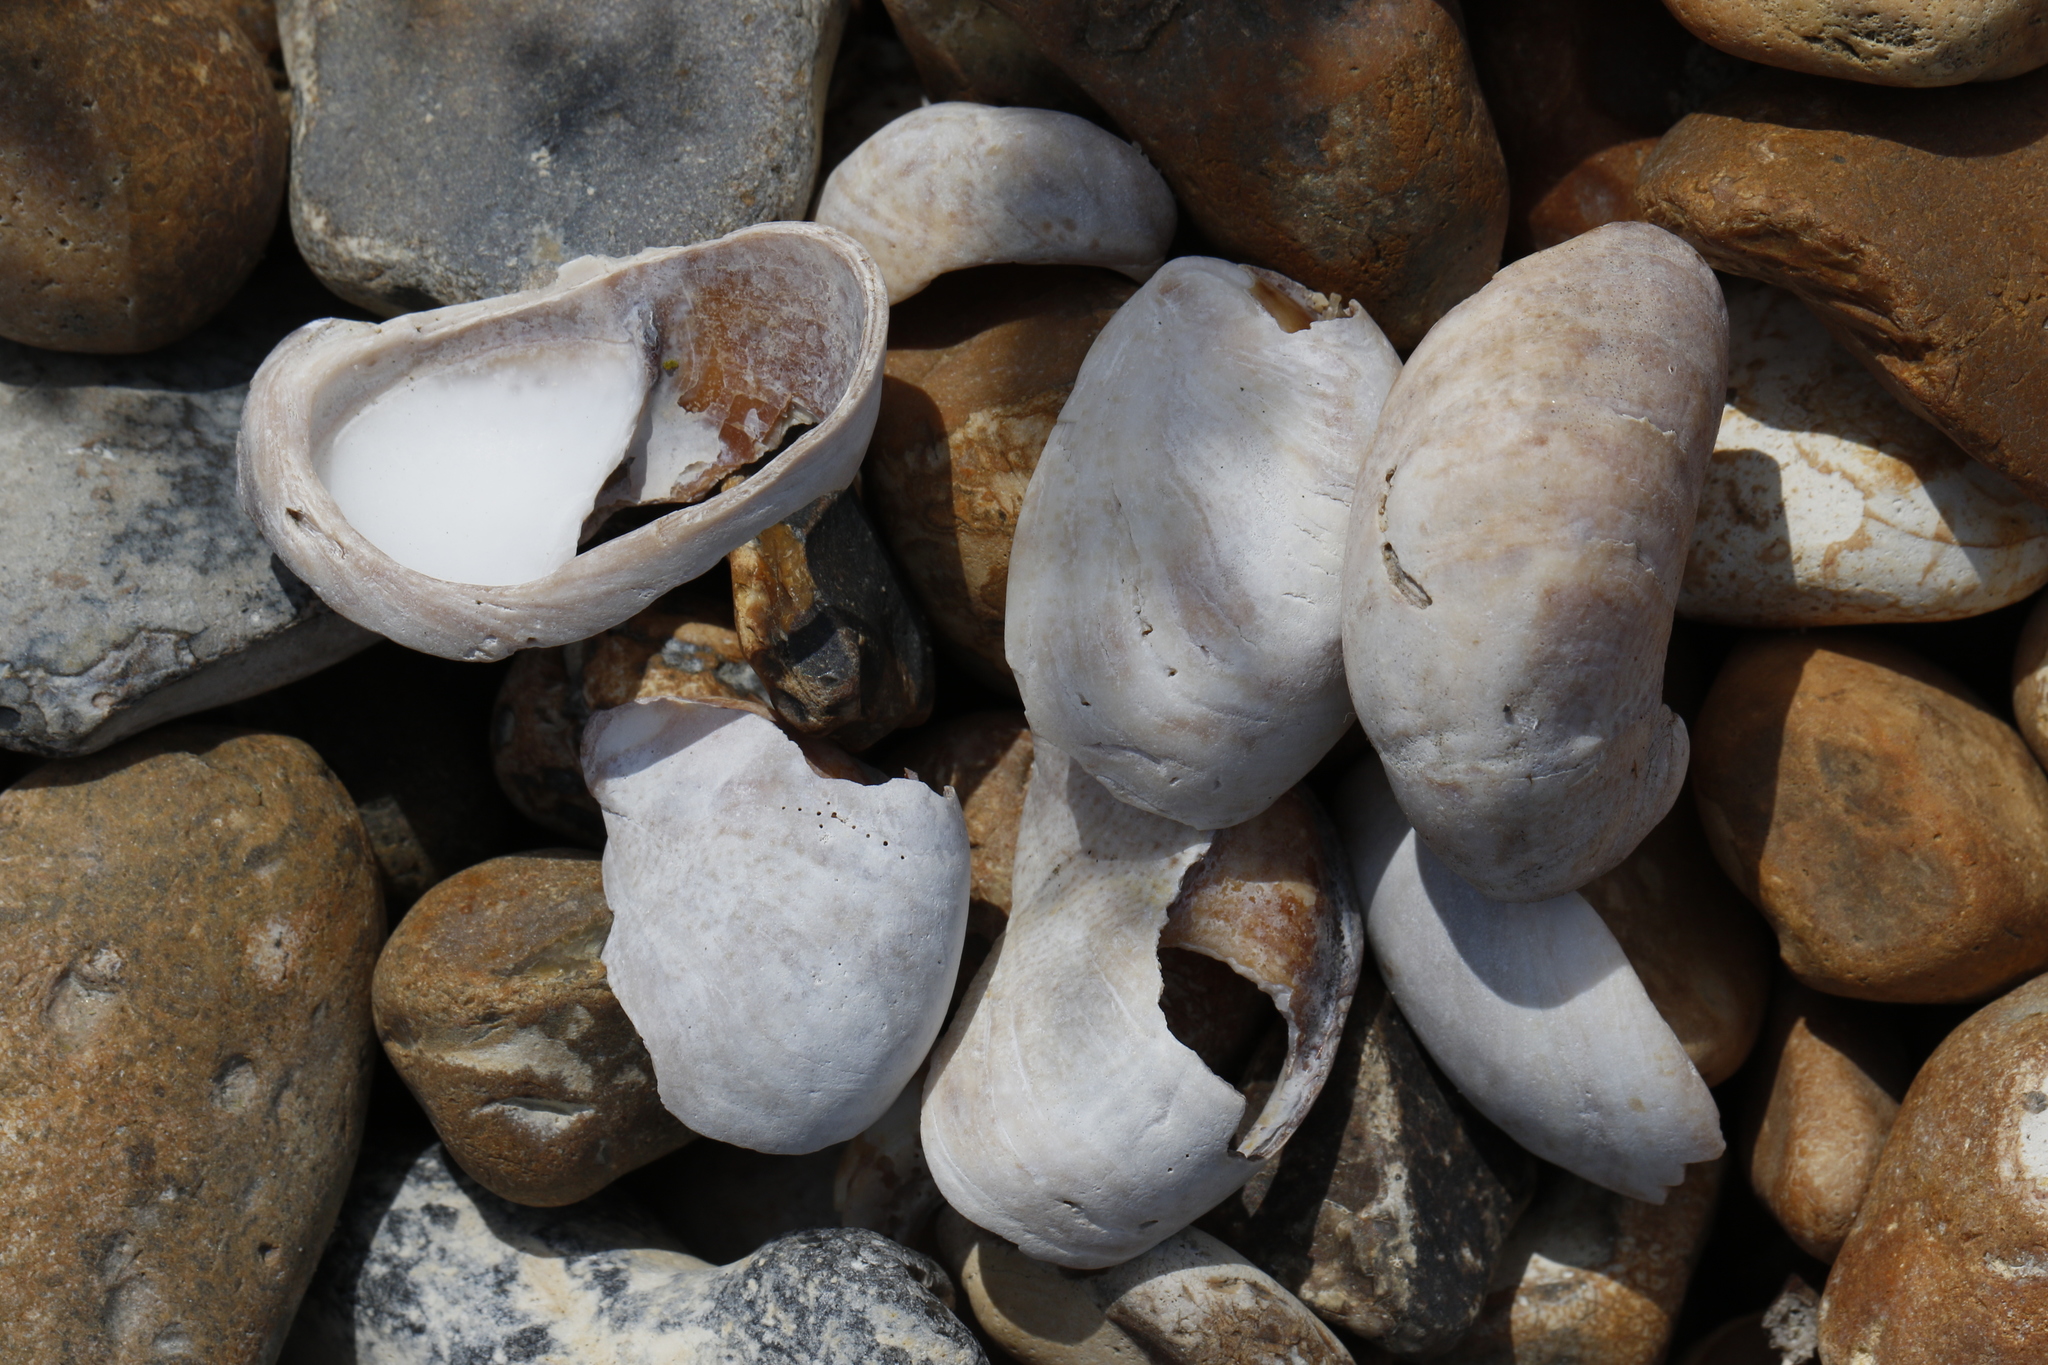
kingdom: Animalia
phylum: Mollusca
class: Gastropoda
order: Littorinimorpha
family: Calyptraeidae
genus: Crepidula
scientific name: Crepidula fornicata
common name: Slipper limpet
